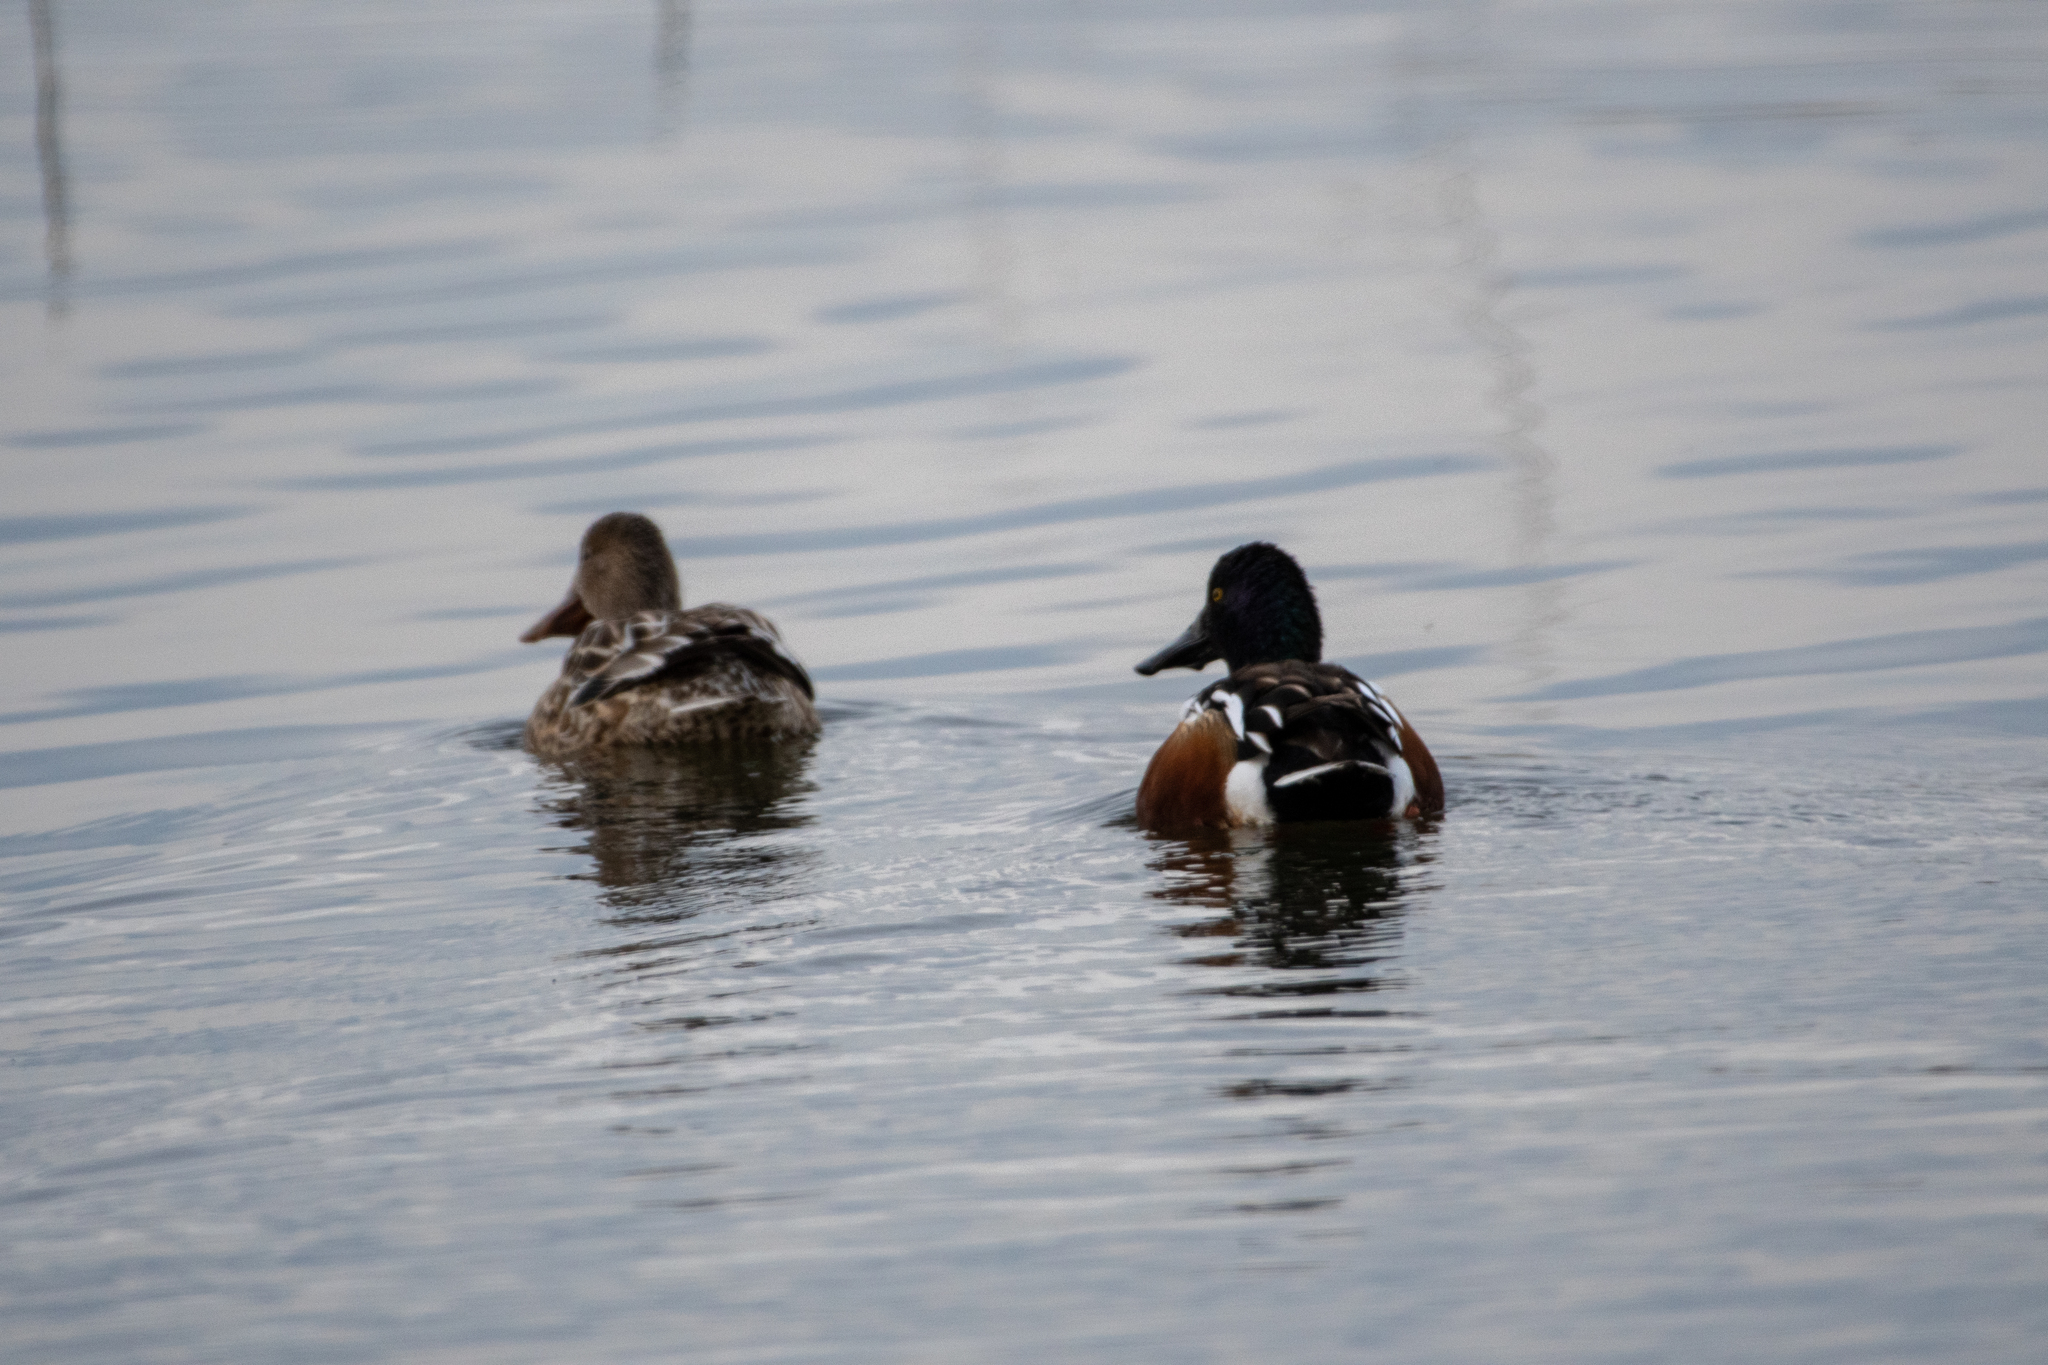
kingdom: Animalia
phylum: Chordata
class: Aves
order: Anseriformes
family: Anatidae
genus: Spatula
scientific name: Spatula clypeata
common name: Northern shoveler
